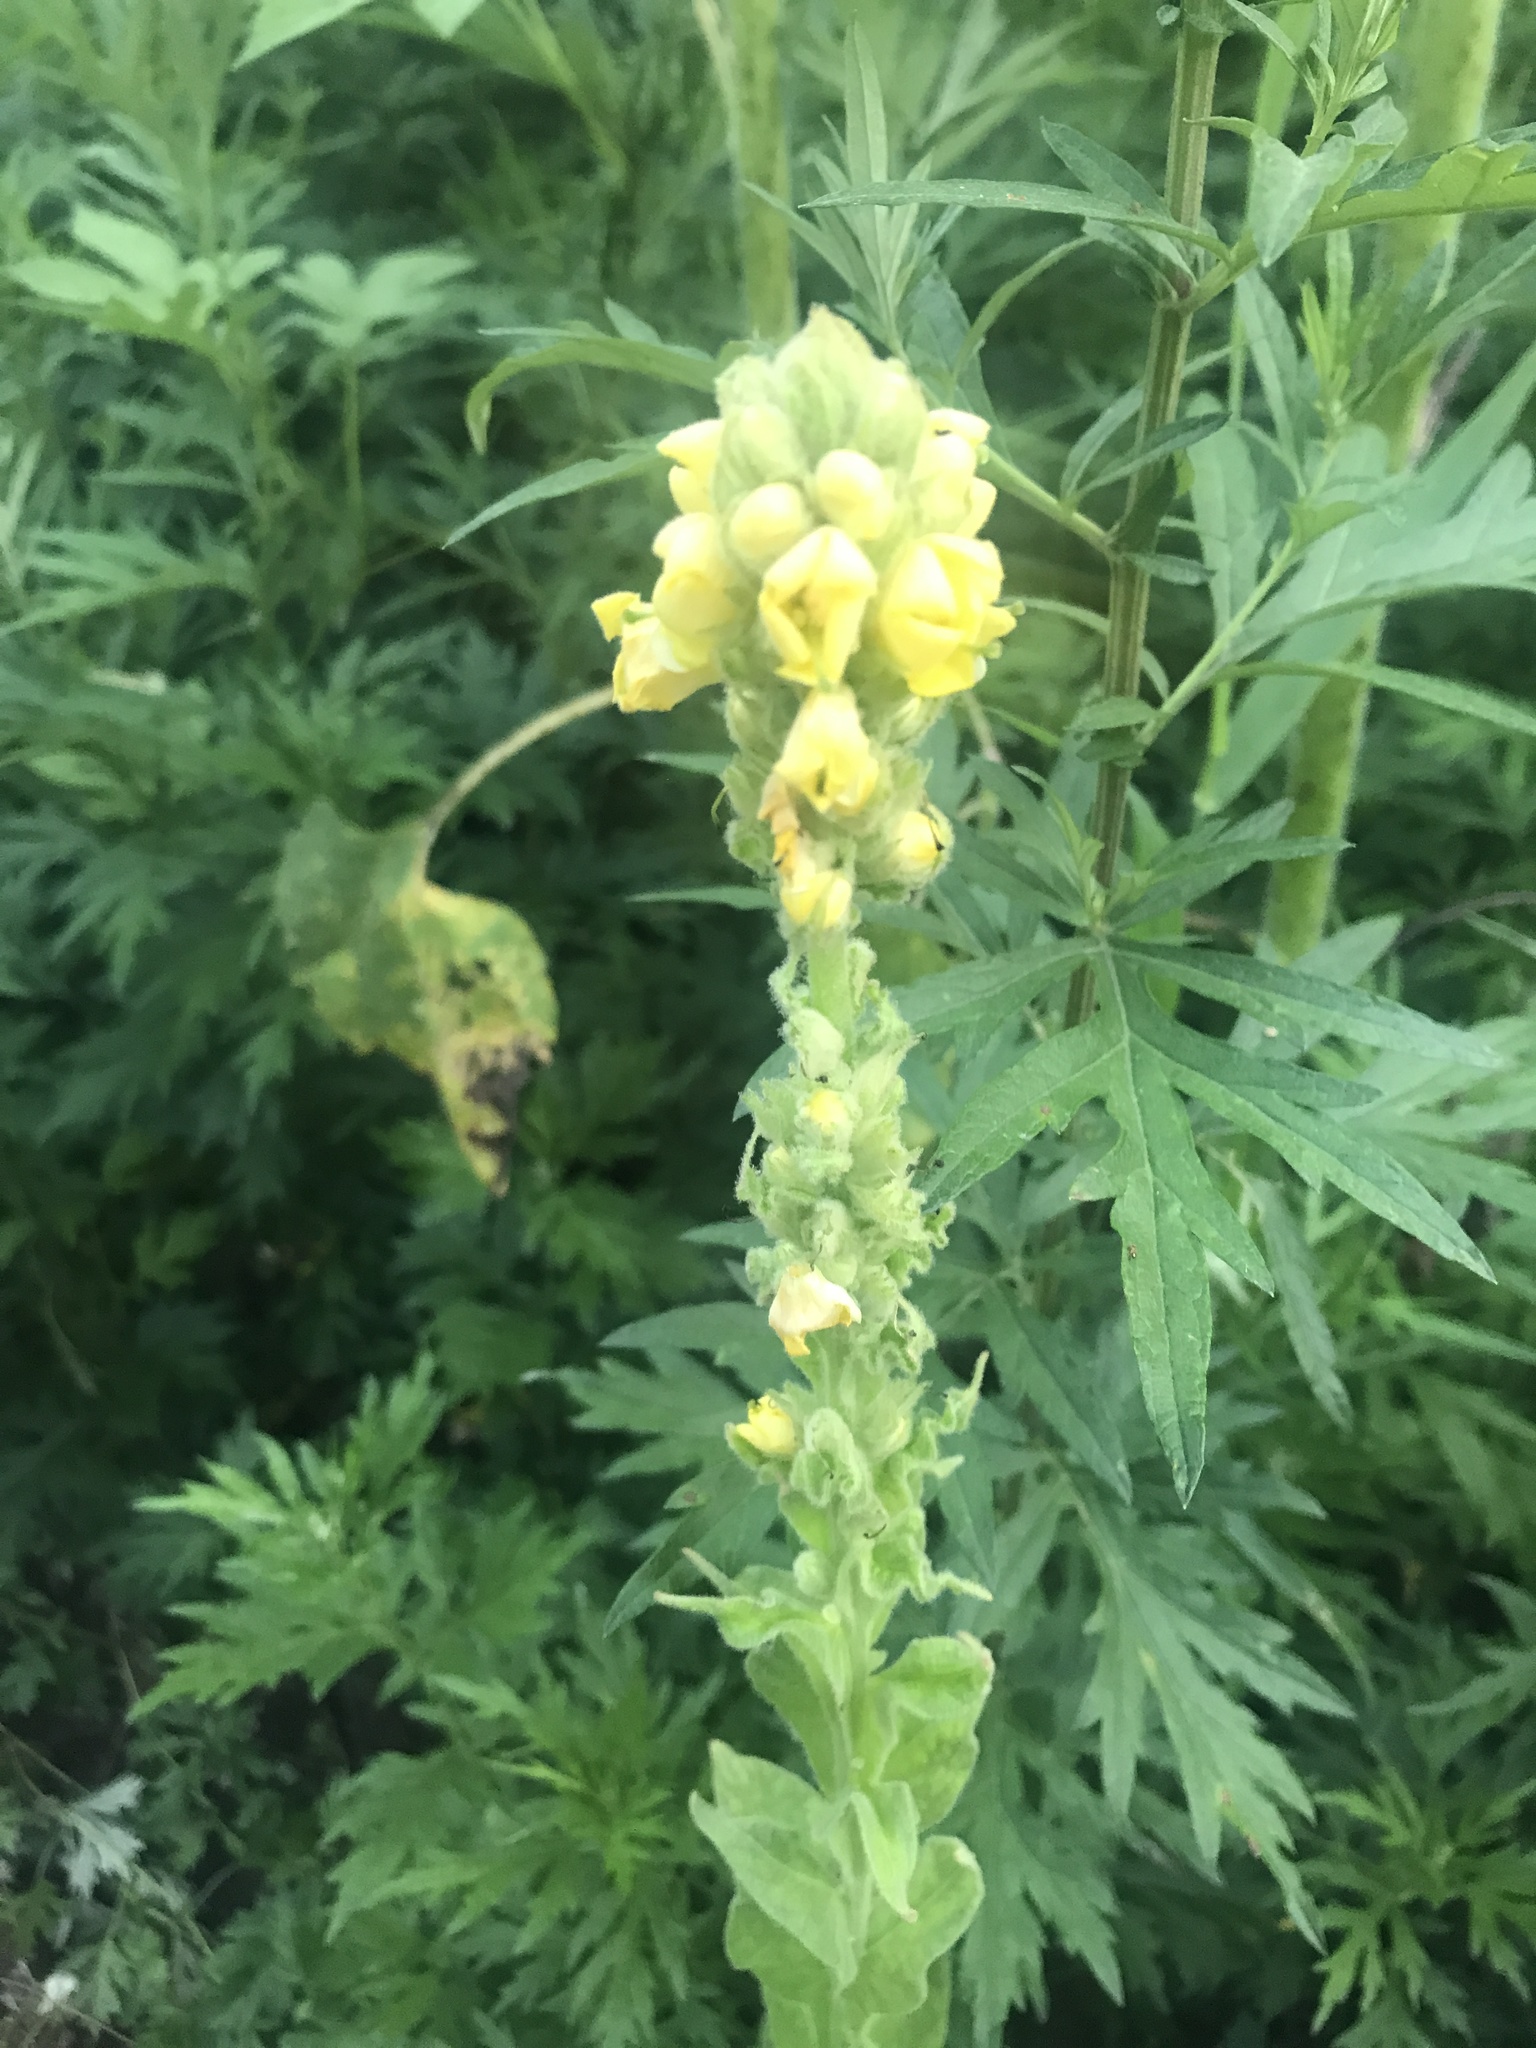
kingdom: Plantae
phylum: Tracheophyta
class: Magnoliopsida
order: Lamiales
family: Scrophulariaceae
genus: Verbascum
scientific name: Verbascum thapsus
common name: Common mullein
